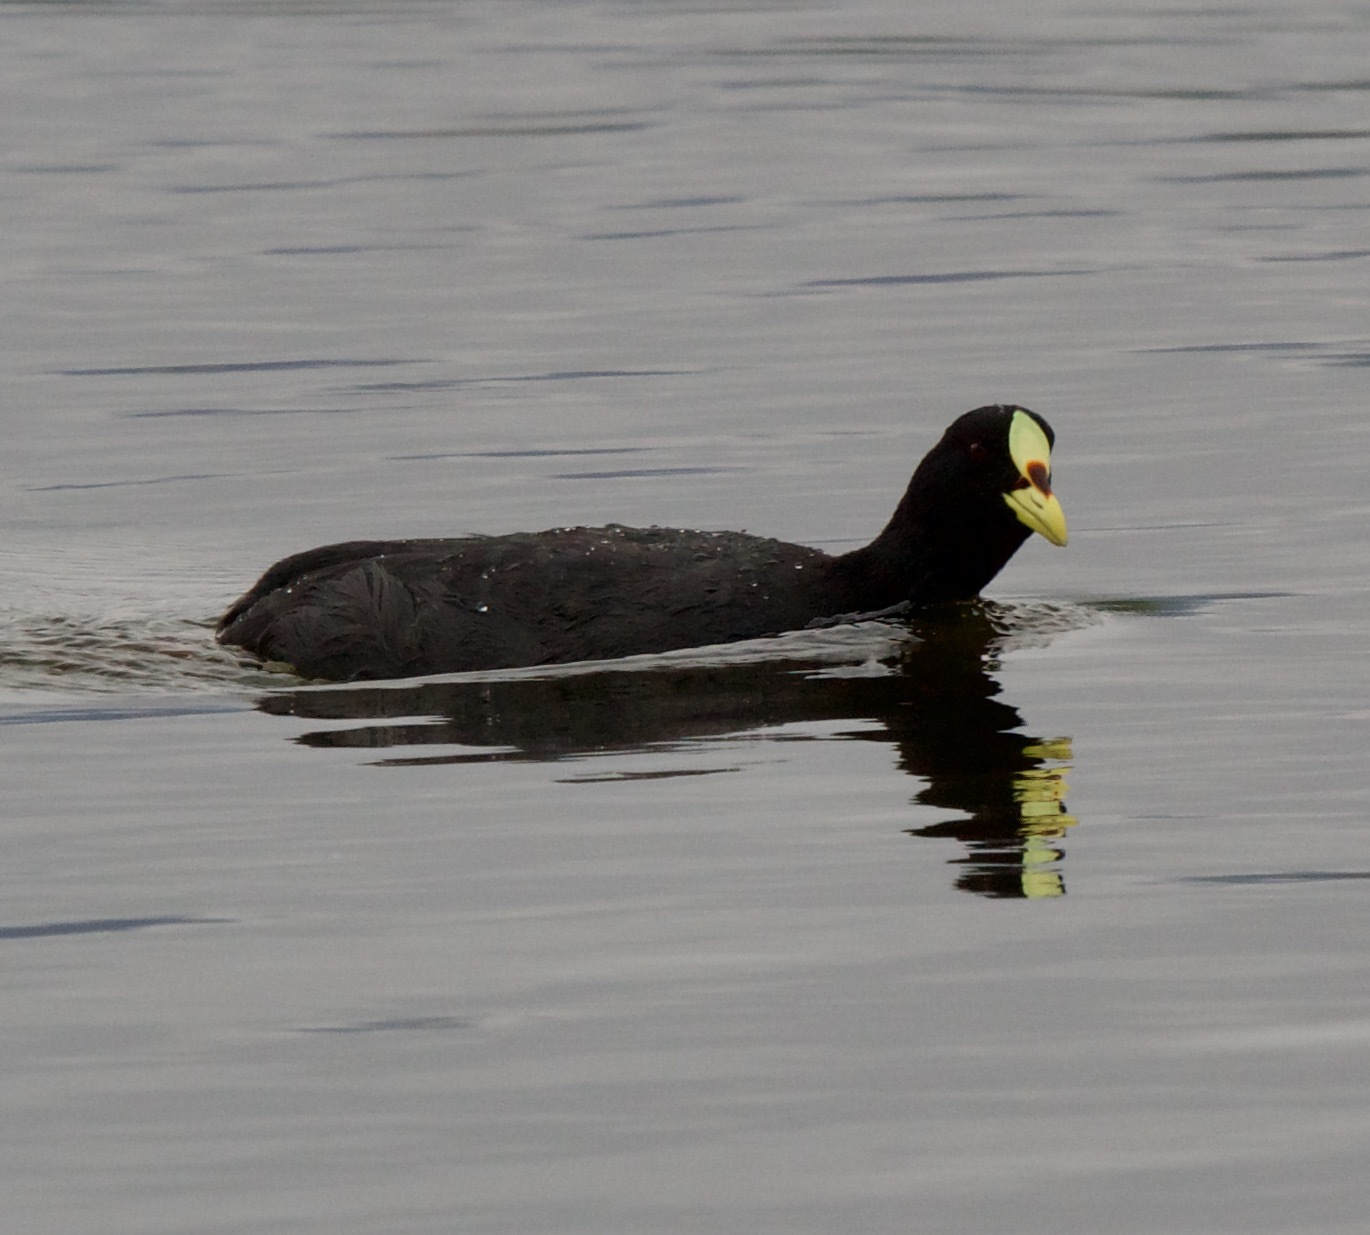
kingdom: Animalia
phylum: Chordata
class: Aves
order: Gruiformes
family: Rallidae
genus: Fulica
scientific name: Fulica armillata
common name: Red-gartered coot
